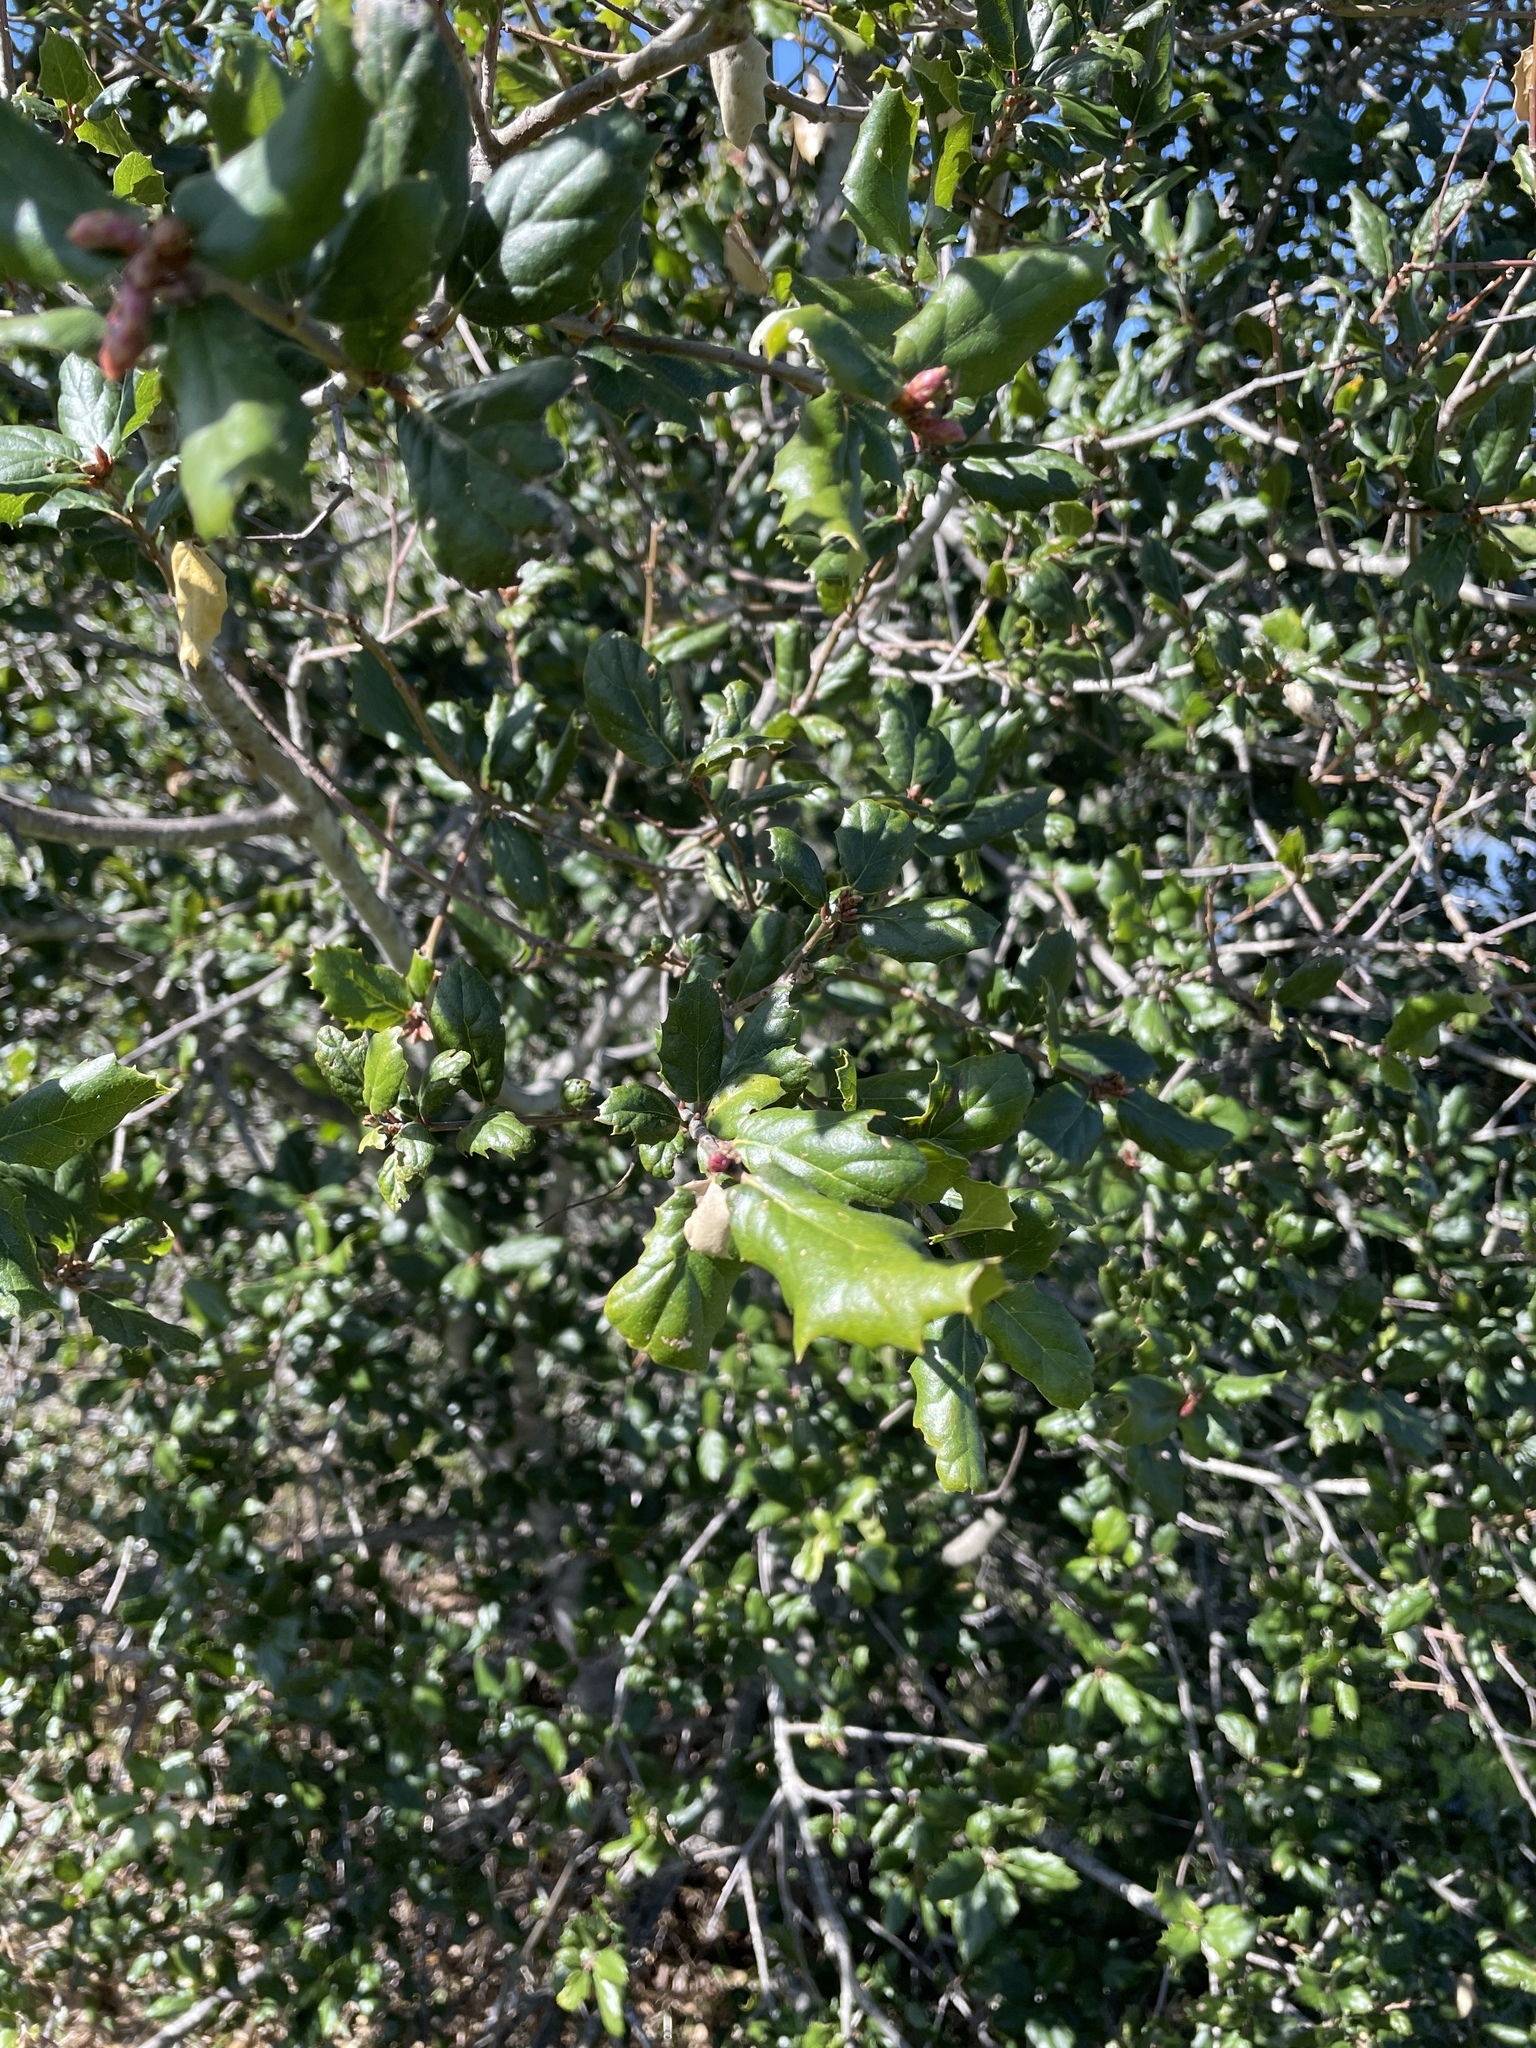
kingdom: Plantae
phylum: Tracheophyta
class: Magnoliopsida
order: Fagales
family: Fagaceae
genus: Quercus
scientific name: Quercus agrifolia
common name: California live oak
